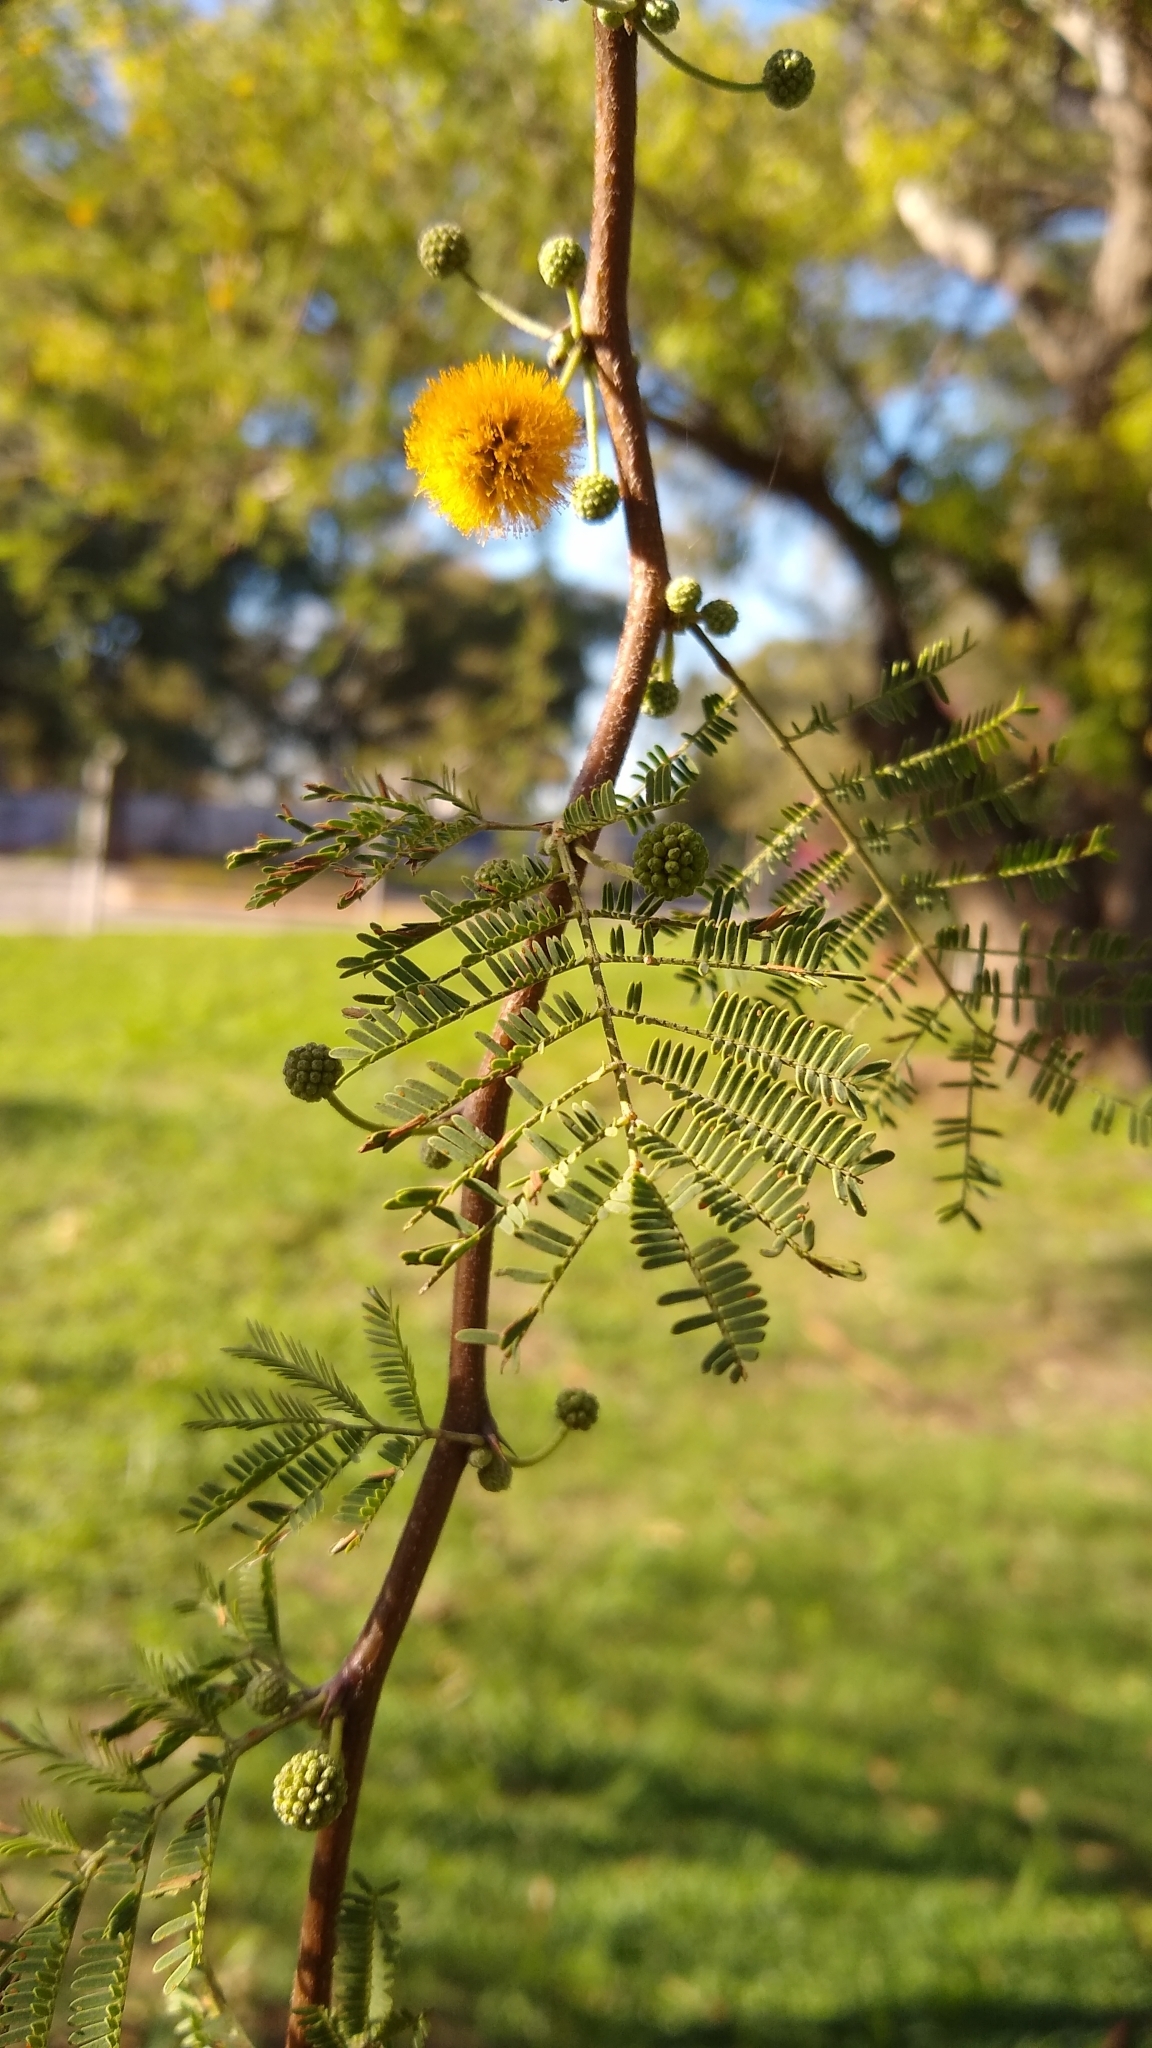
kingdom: Plantae
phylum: Tracheophyta
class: Magnoliopsida
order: Fabales
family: Fabaceae
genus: Vachellia
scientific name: Vachellia caven
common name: Roman cassie
